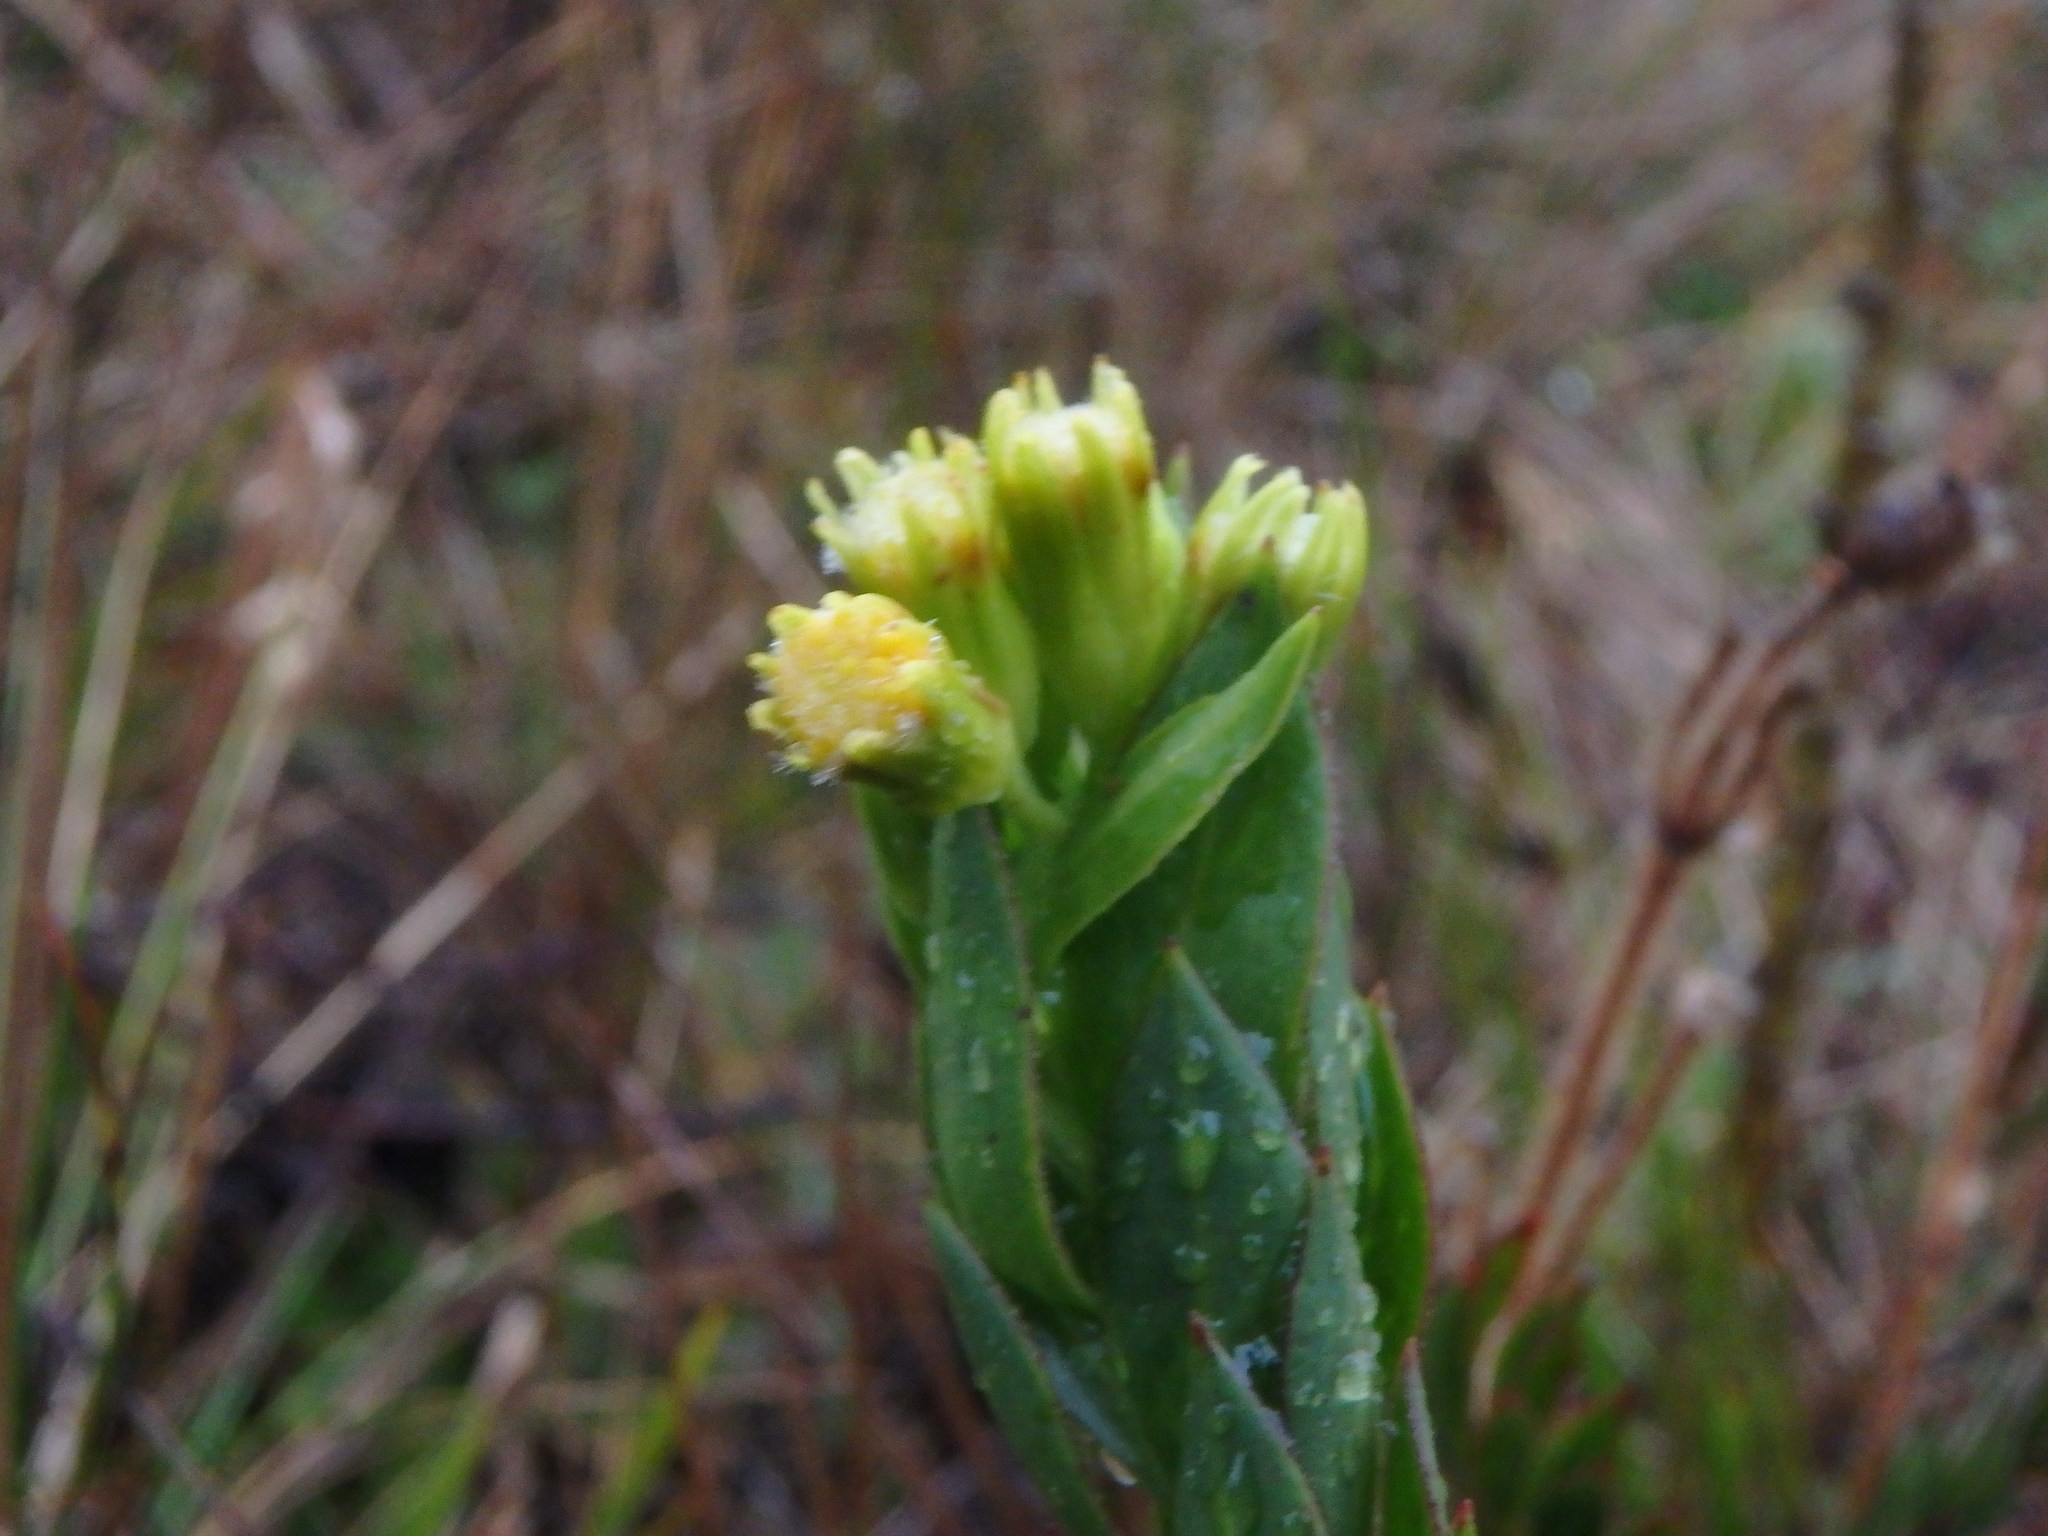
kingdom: Plantae
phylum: Tracheophyta
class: Magnoliopsida
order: Asterales
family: Asteraceae
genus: Monticalia
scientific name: Monticalia vaccinioides
